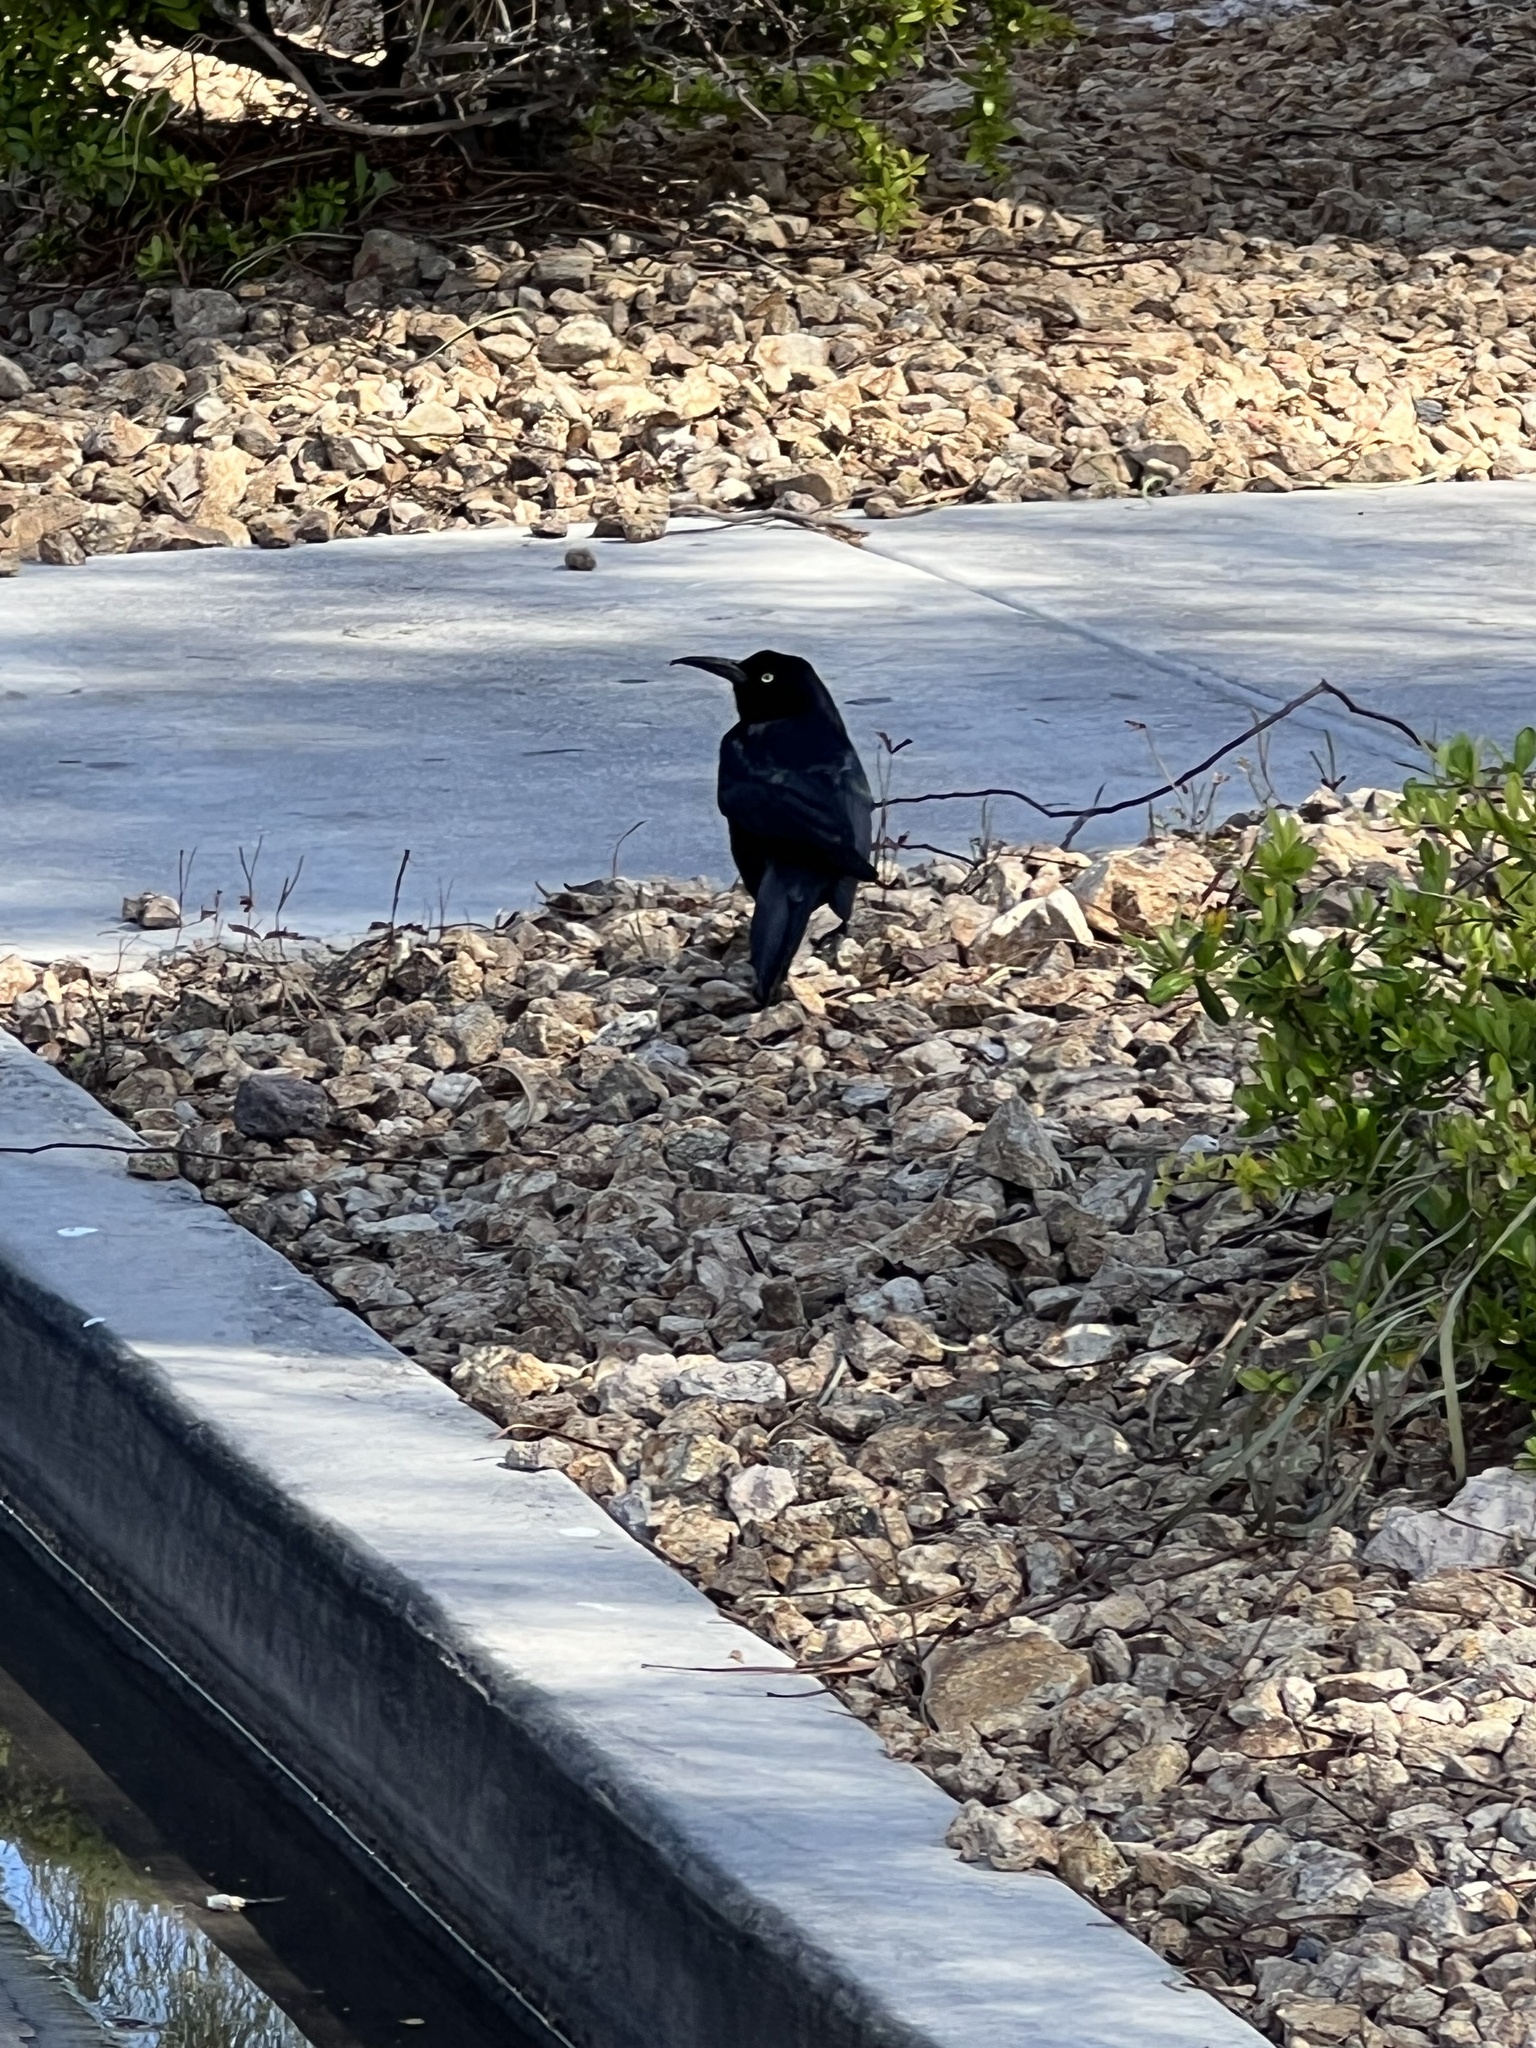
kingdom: Animalia
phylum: Chordata
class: Aves
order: Passeriformes
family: Icteridae
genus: Quiscalus
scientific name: Quiscalus mexicanus
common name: Great-tailed grackle
